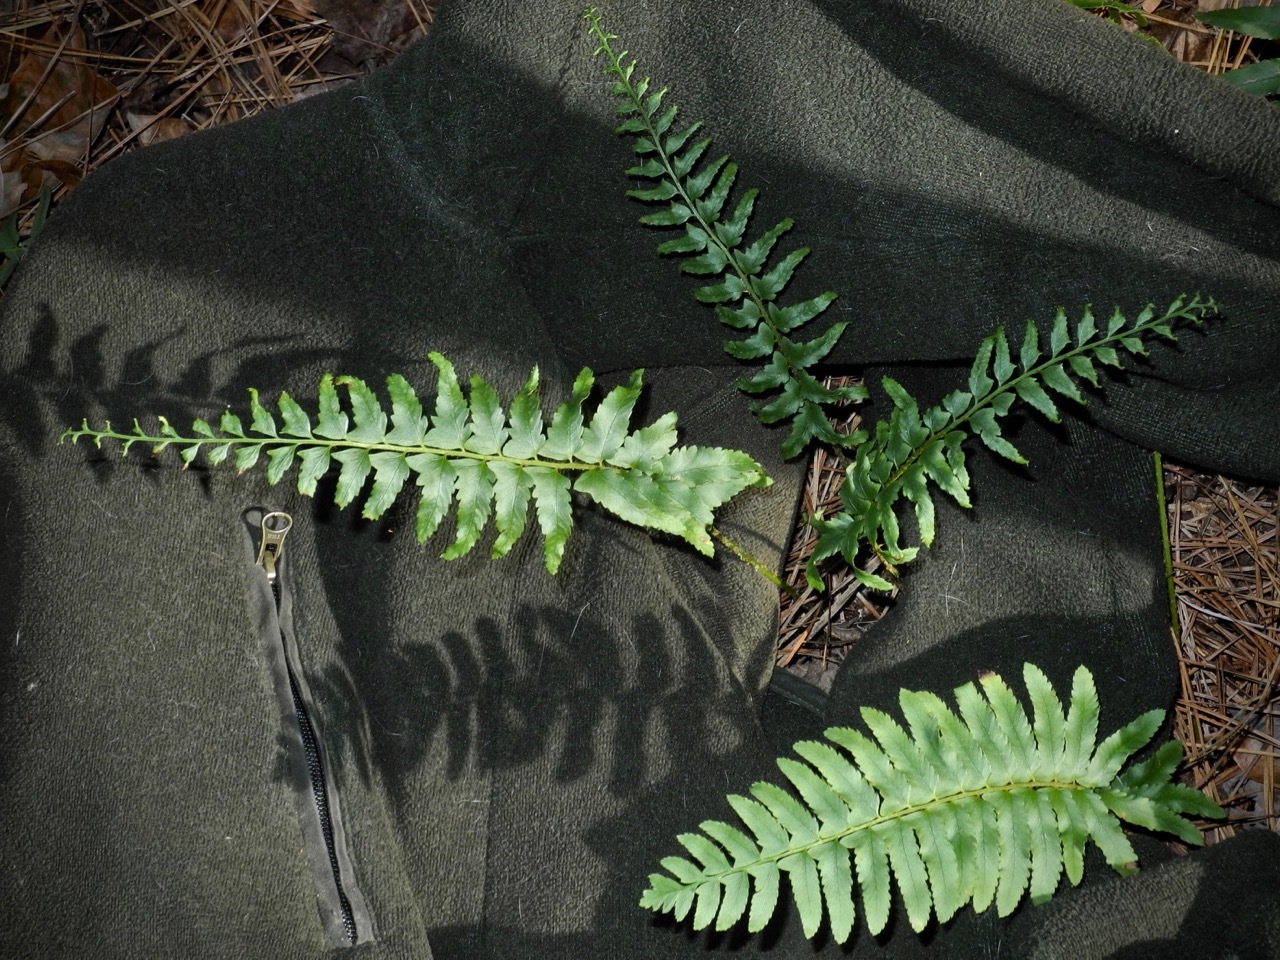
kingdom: Plantae
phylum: Tracheophyta
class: Polypodiopsida
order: Polypodiales
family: Dryopteridaceae
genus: Polystichum
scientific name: Polystichum acrostichoides
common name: Christmas fern
